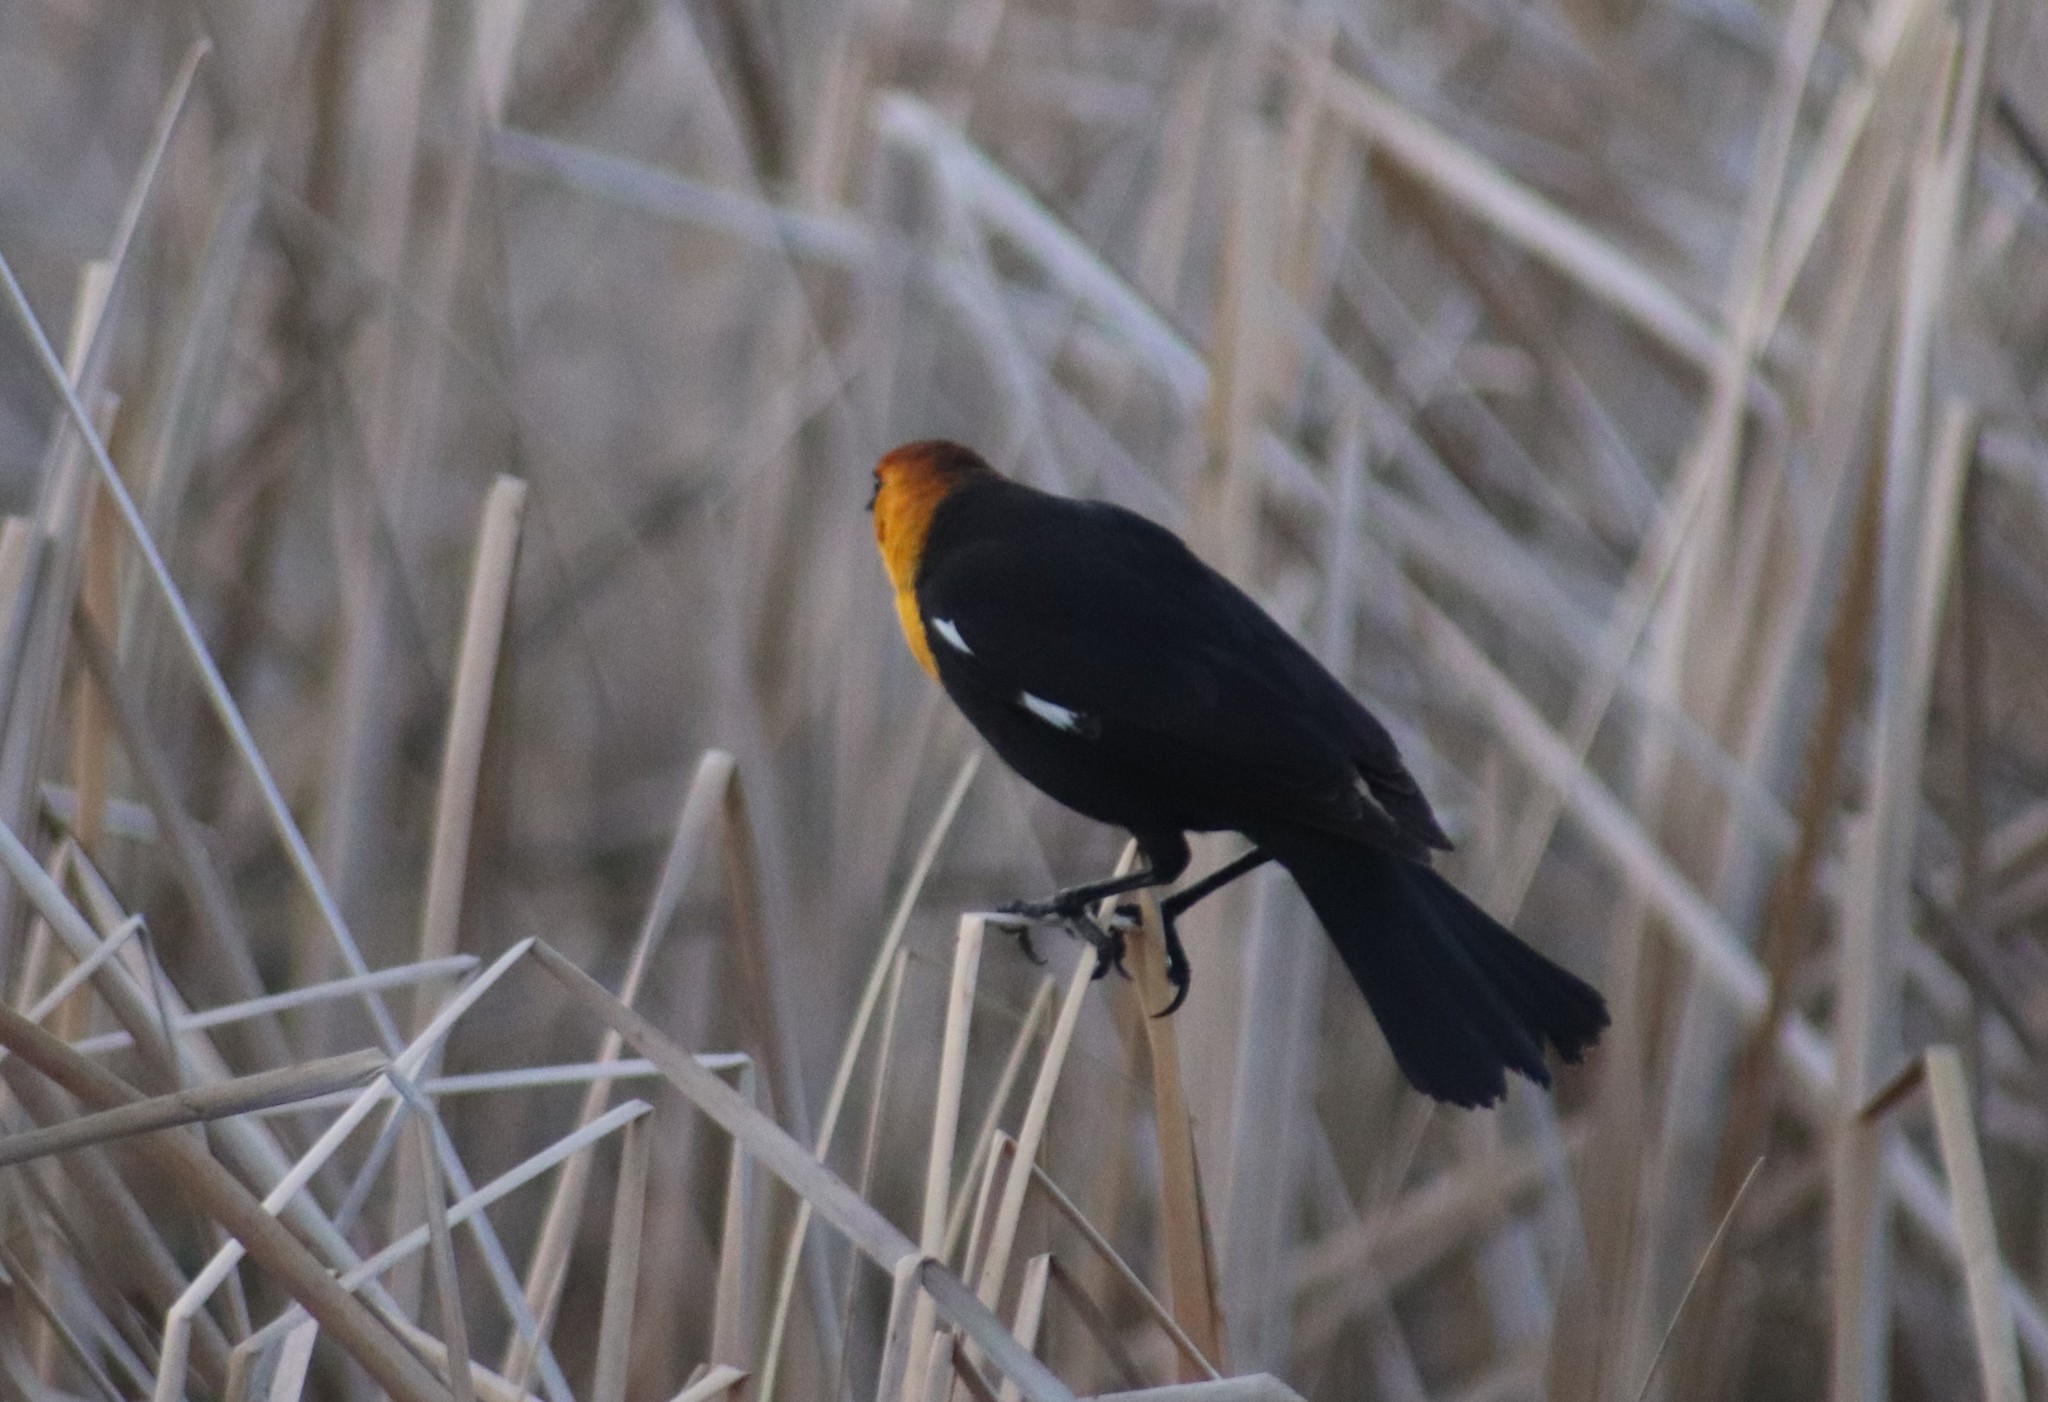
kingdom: Animalia
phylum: Chordata
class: Aves
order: Passeriformes
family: Icteridae
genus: Xanthocephalus
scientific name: Xanthocephalus xanthocephalus
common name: Yellow-headed blackbird
